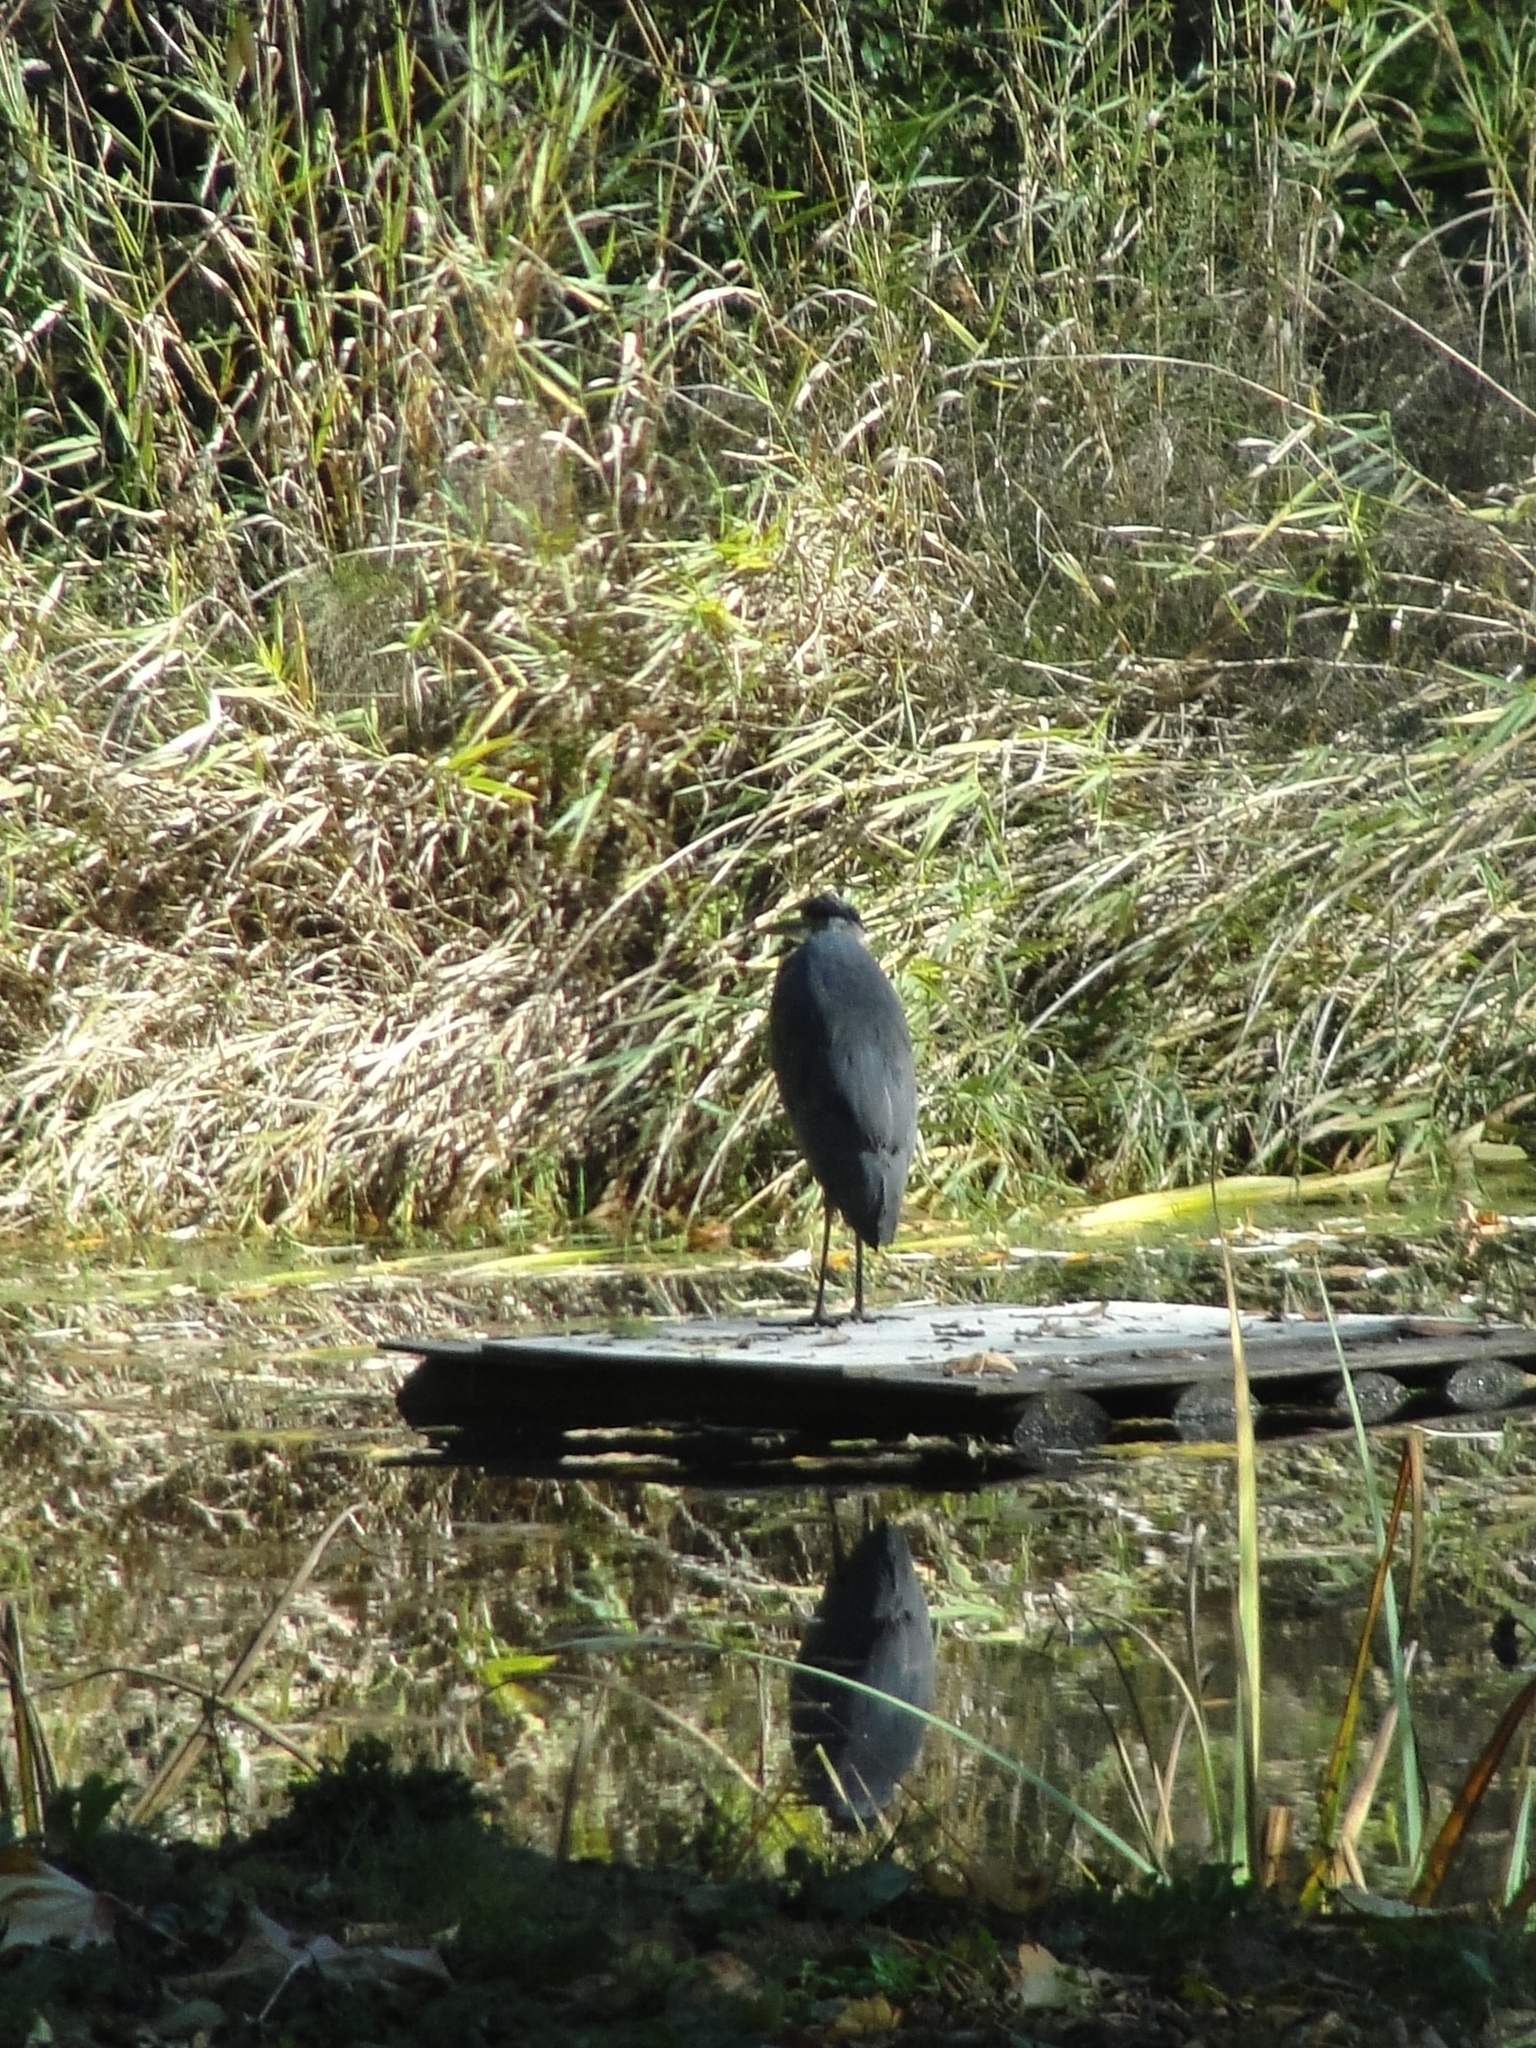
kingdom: Animalia
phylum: Chordata
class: Aves
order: Pelecaniformes
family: Ardeidae
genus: Ardea
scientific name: Ardea herodias
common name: Great blue heron
